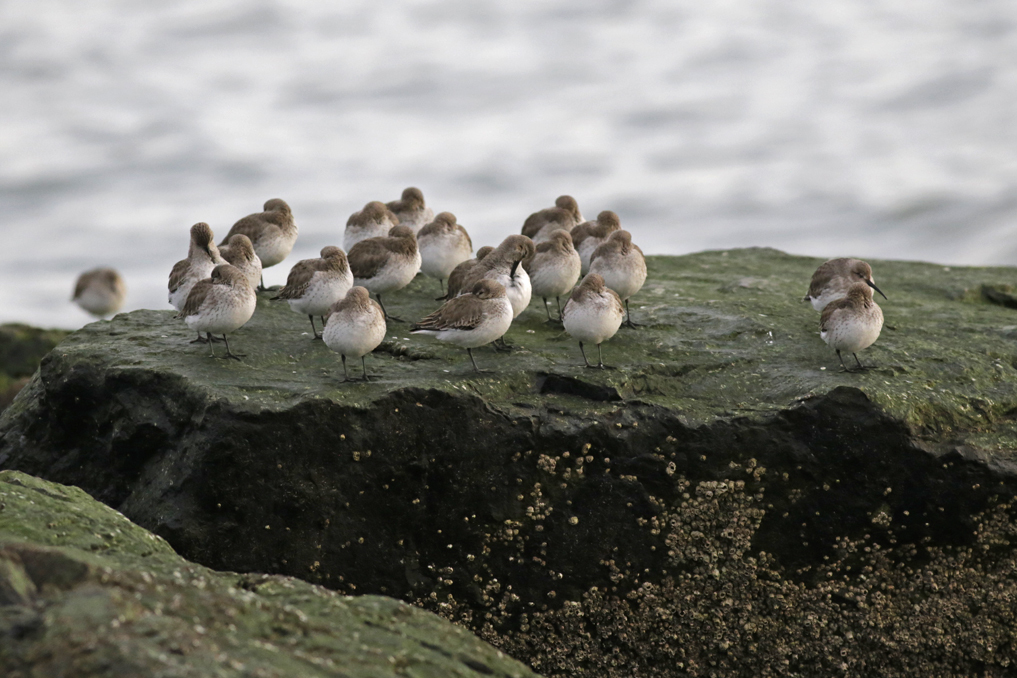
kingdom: Animalia
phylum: Chordata
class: Aves
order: Charadriiformes
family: Scolopacidae
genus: Calidris
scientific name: Calidris alpina
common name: Dunlin
